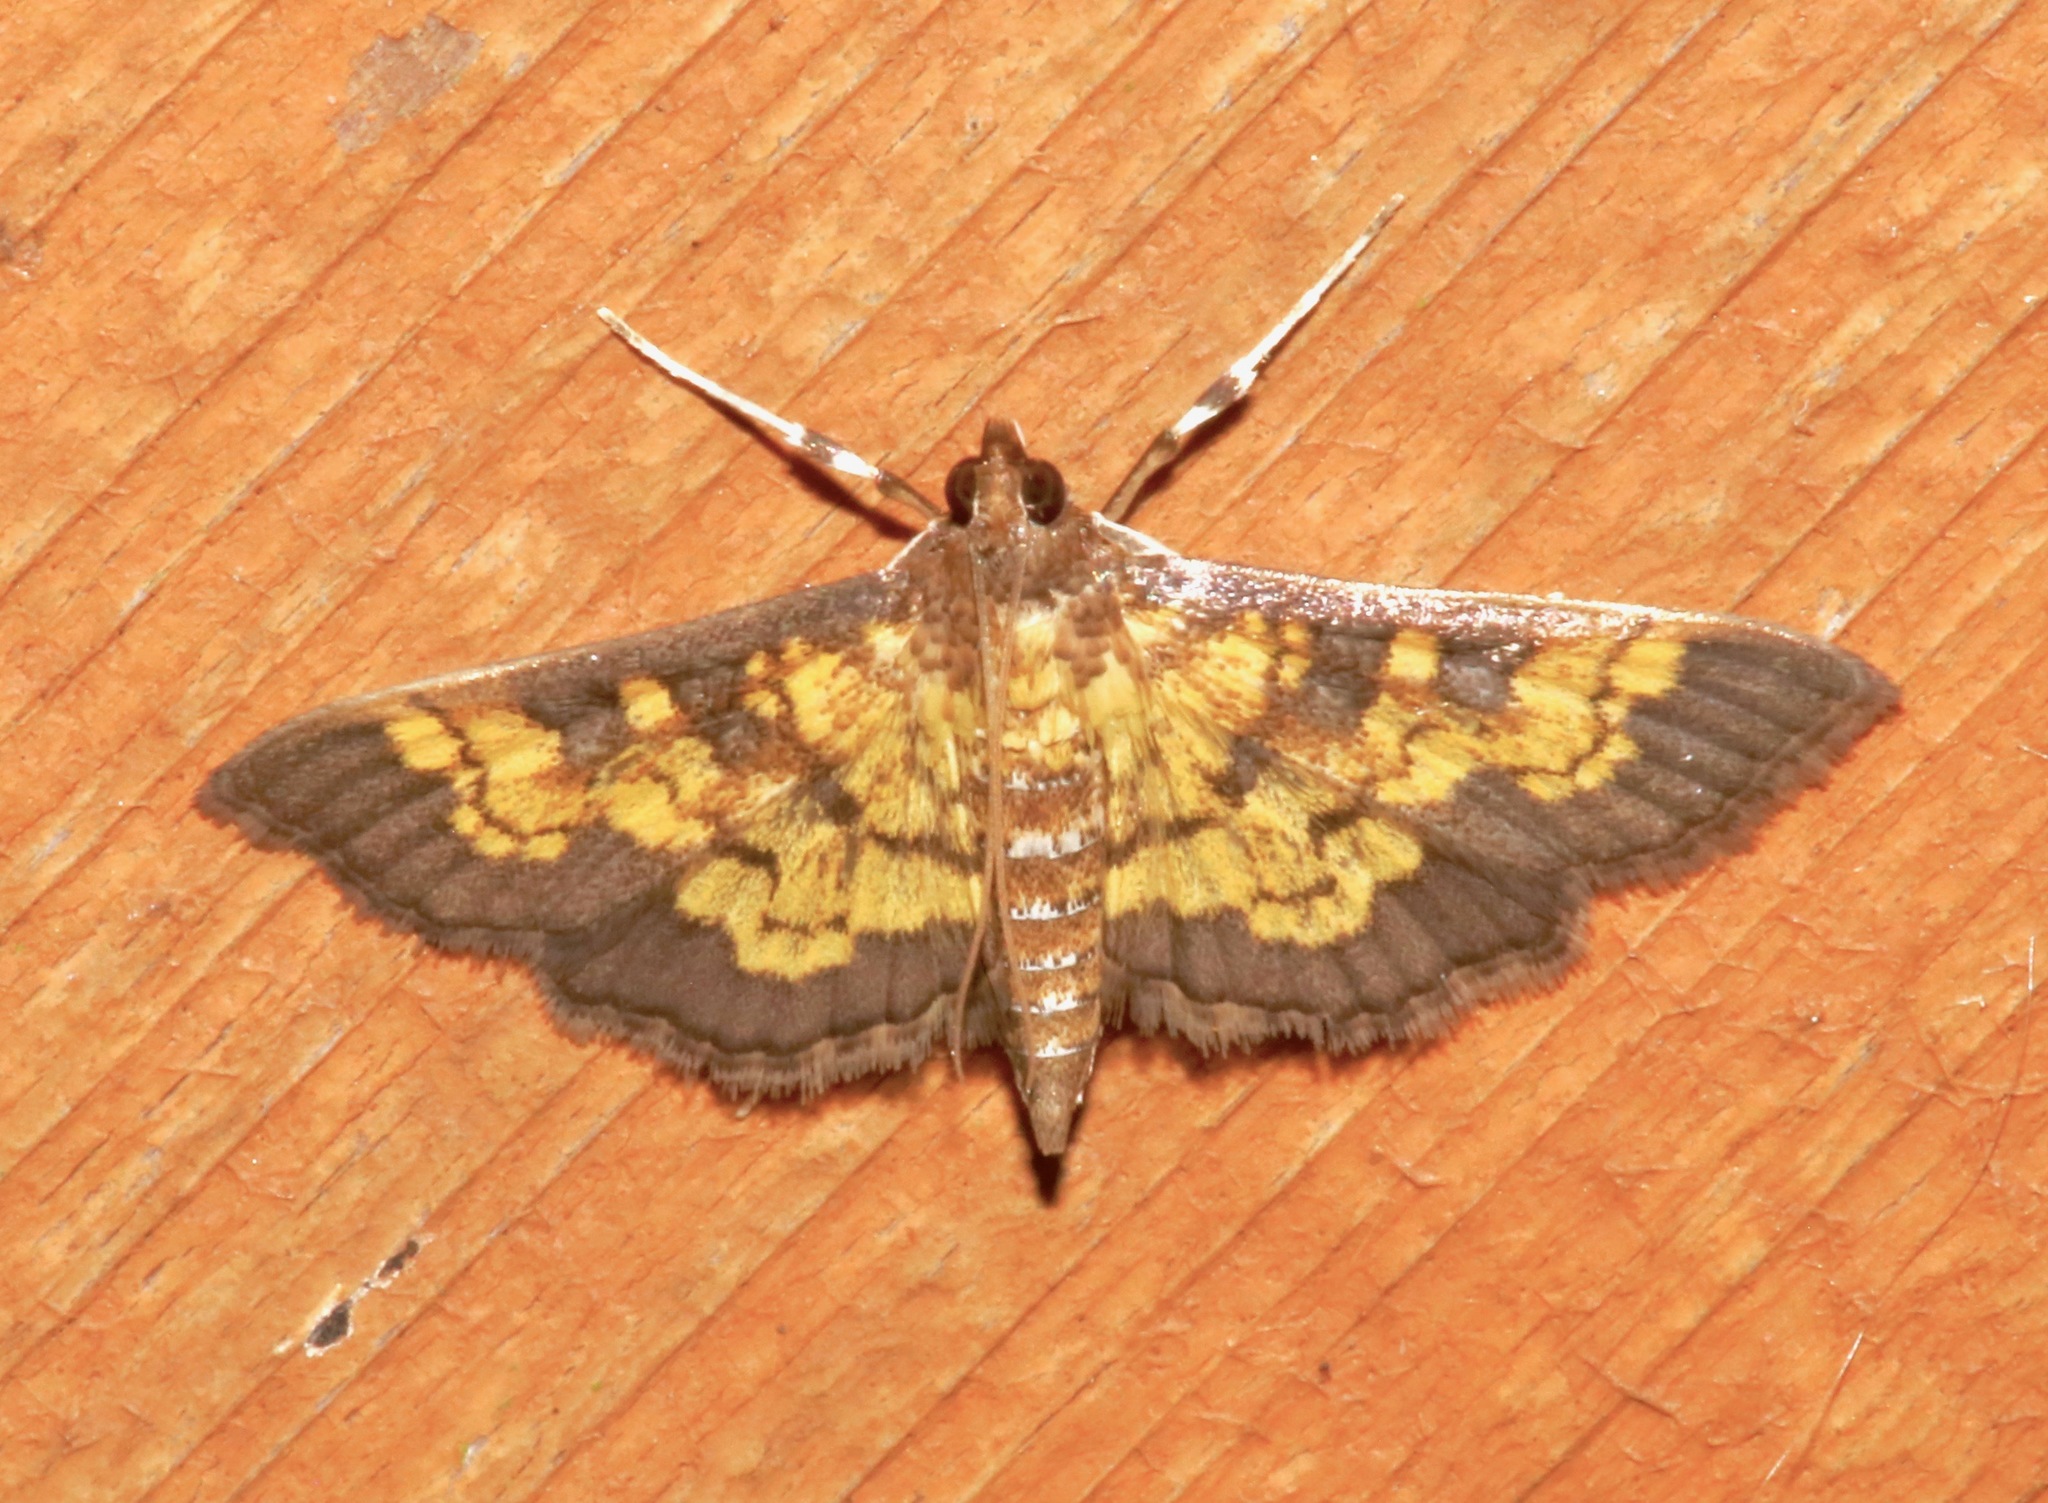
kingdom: Animalia
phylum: Arthropoda
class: Insecta
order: Lepidoptera
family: Crambidae
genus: Epipagis
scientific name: Epipagis adipaloides
